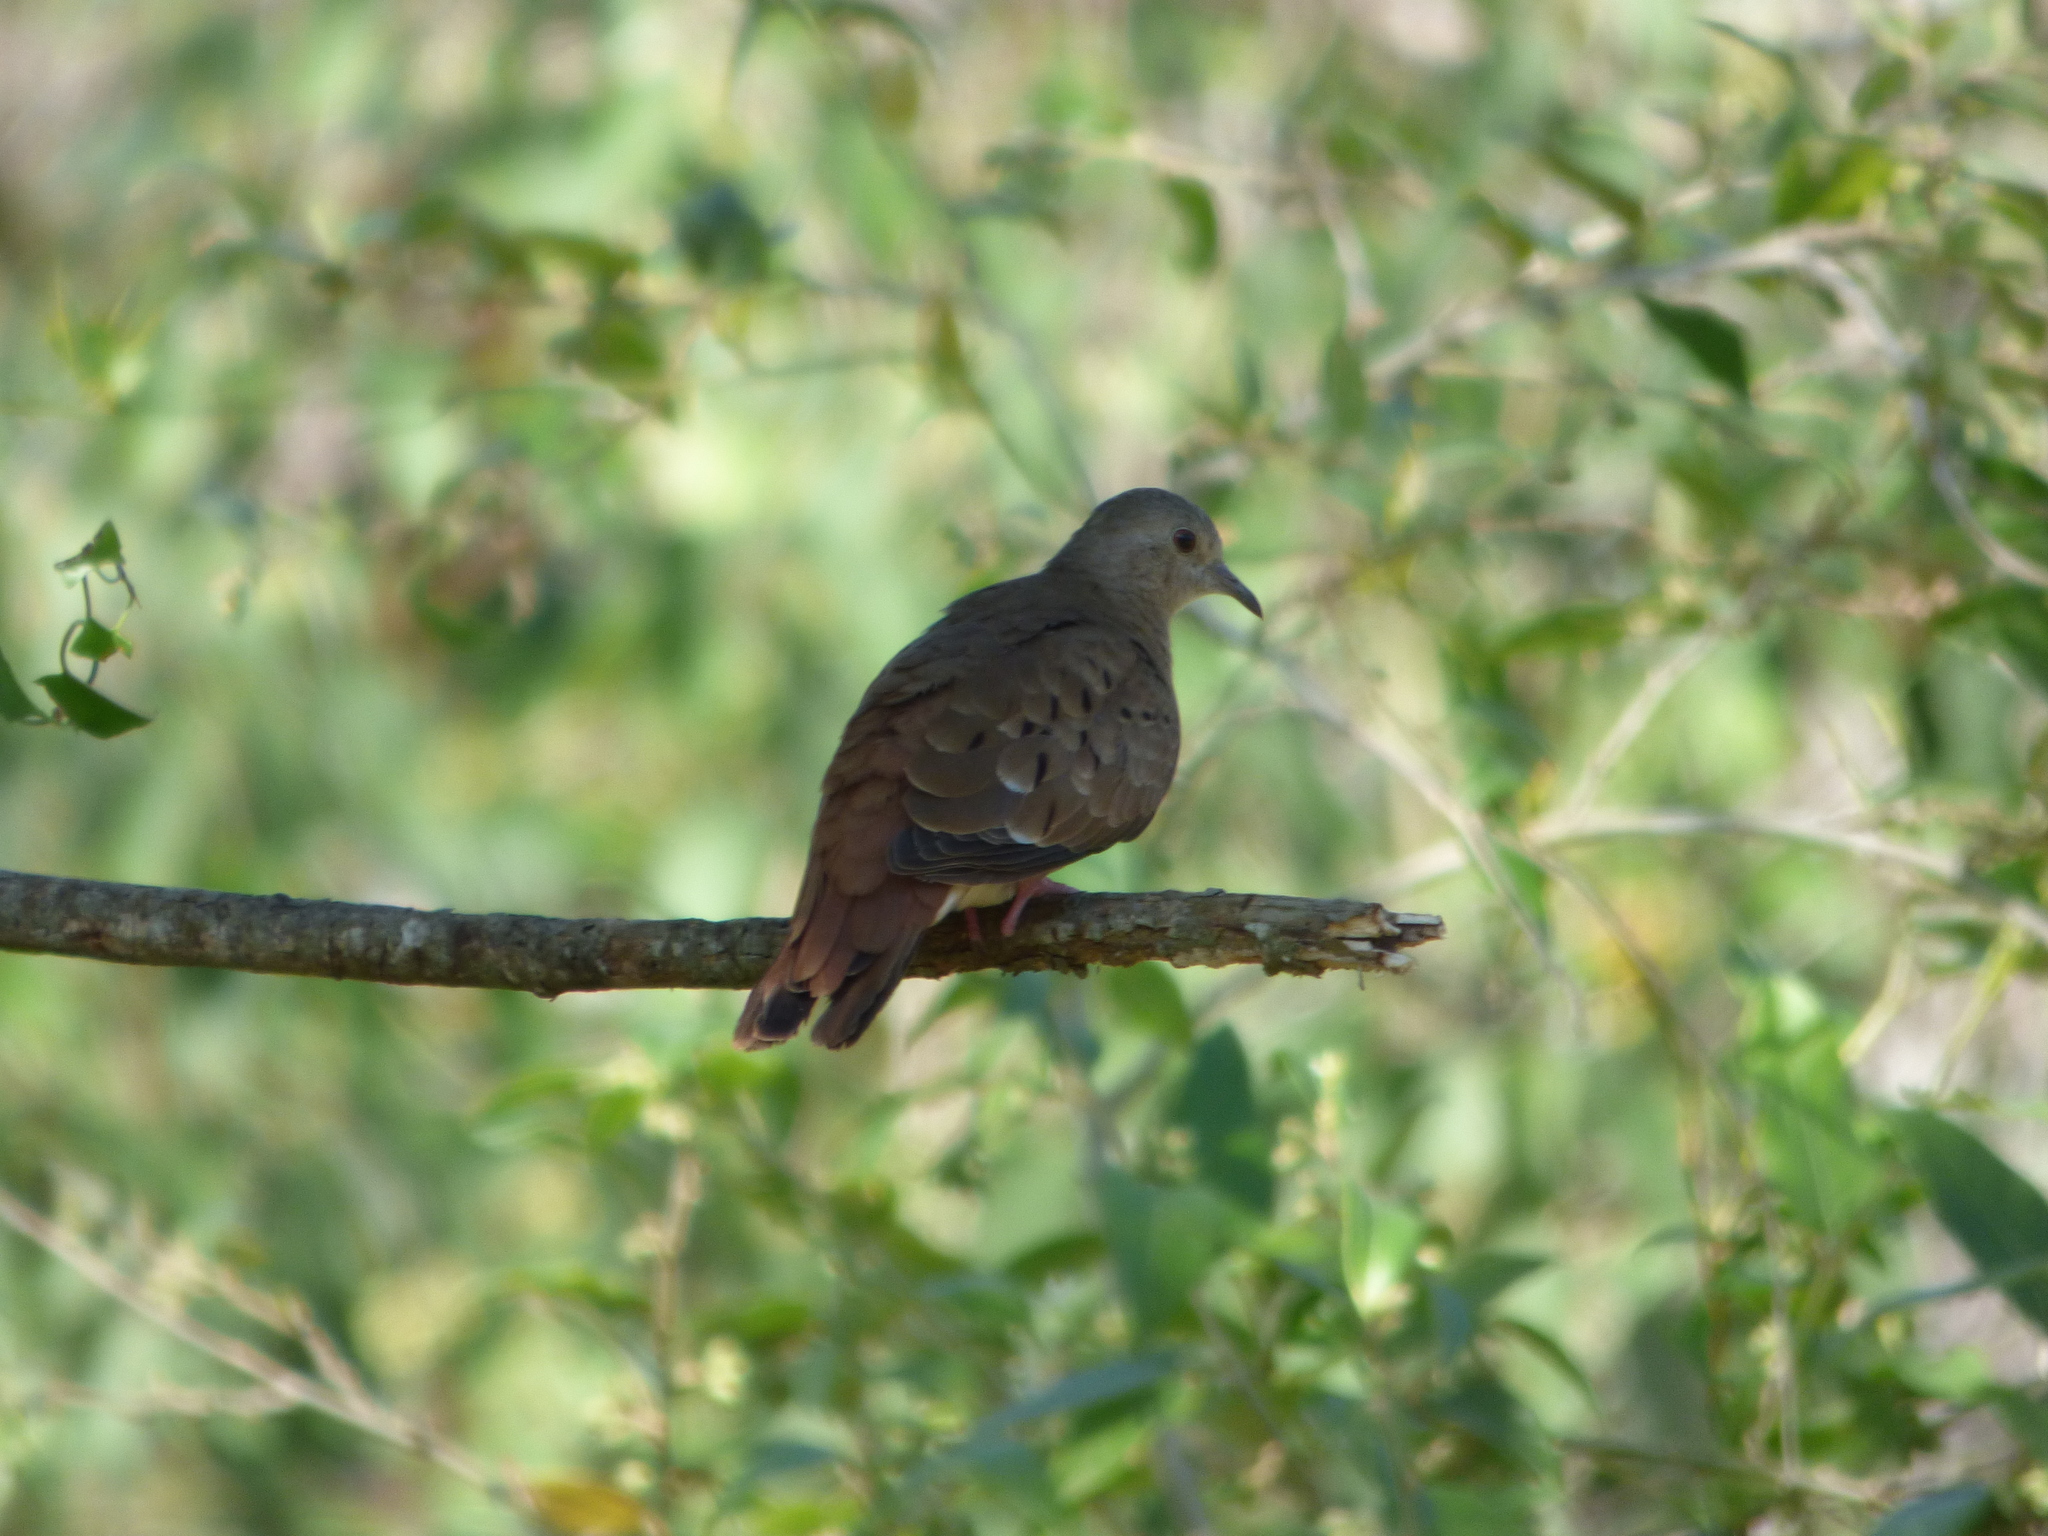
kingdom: Animalia
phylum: Chordata
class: Aves
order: Columbiformes
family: Columbidae
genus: Columbina
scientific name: Columbina talpacoti
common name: Ruddy ground dove
